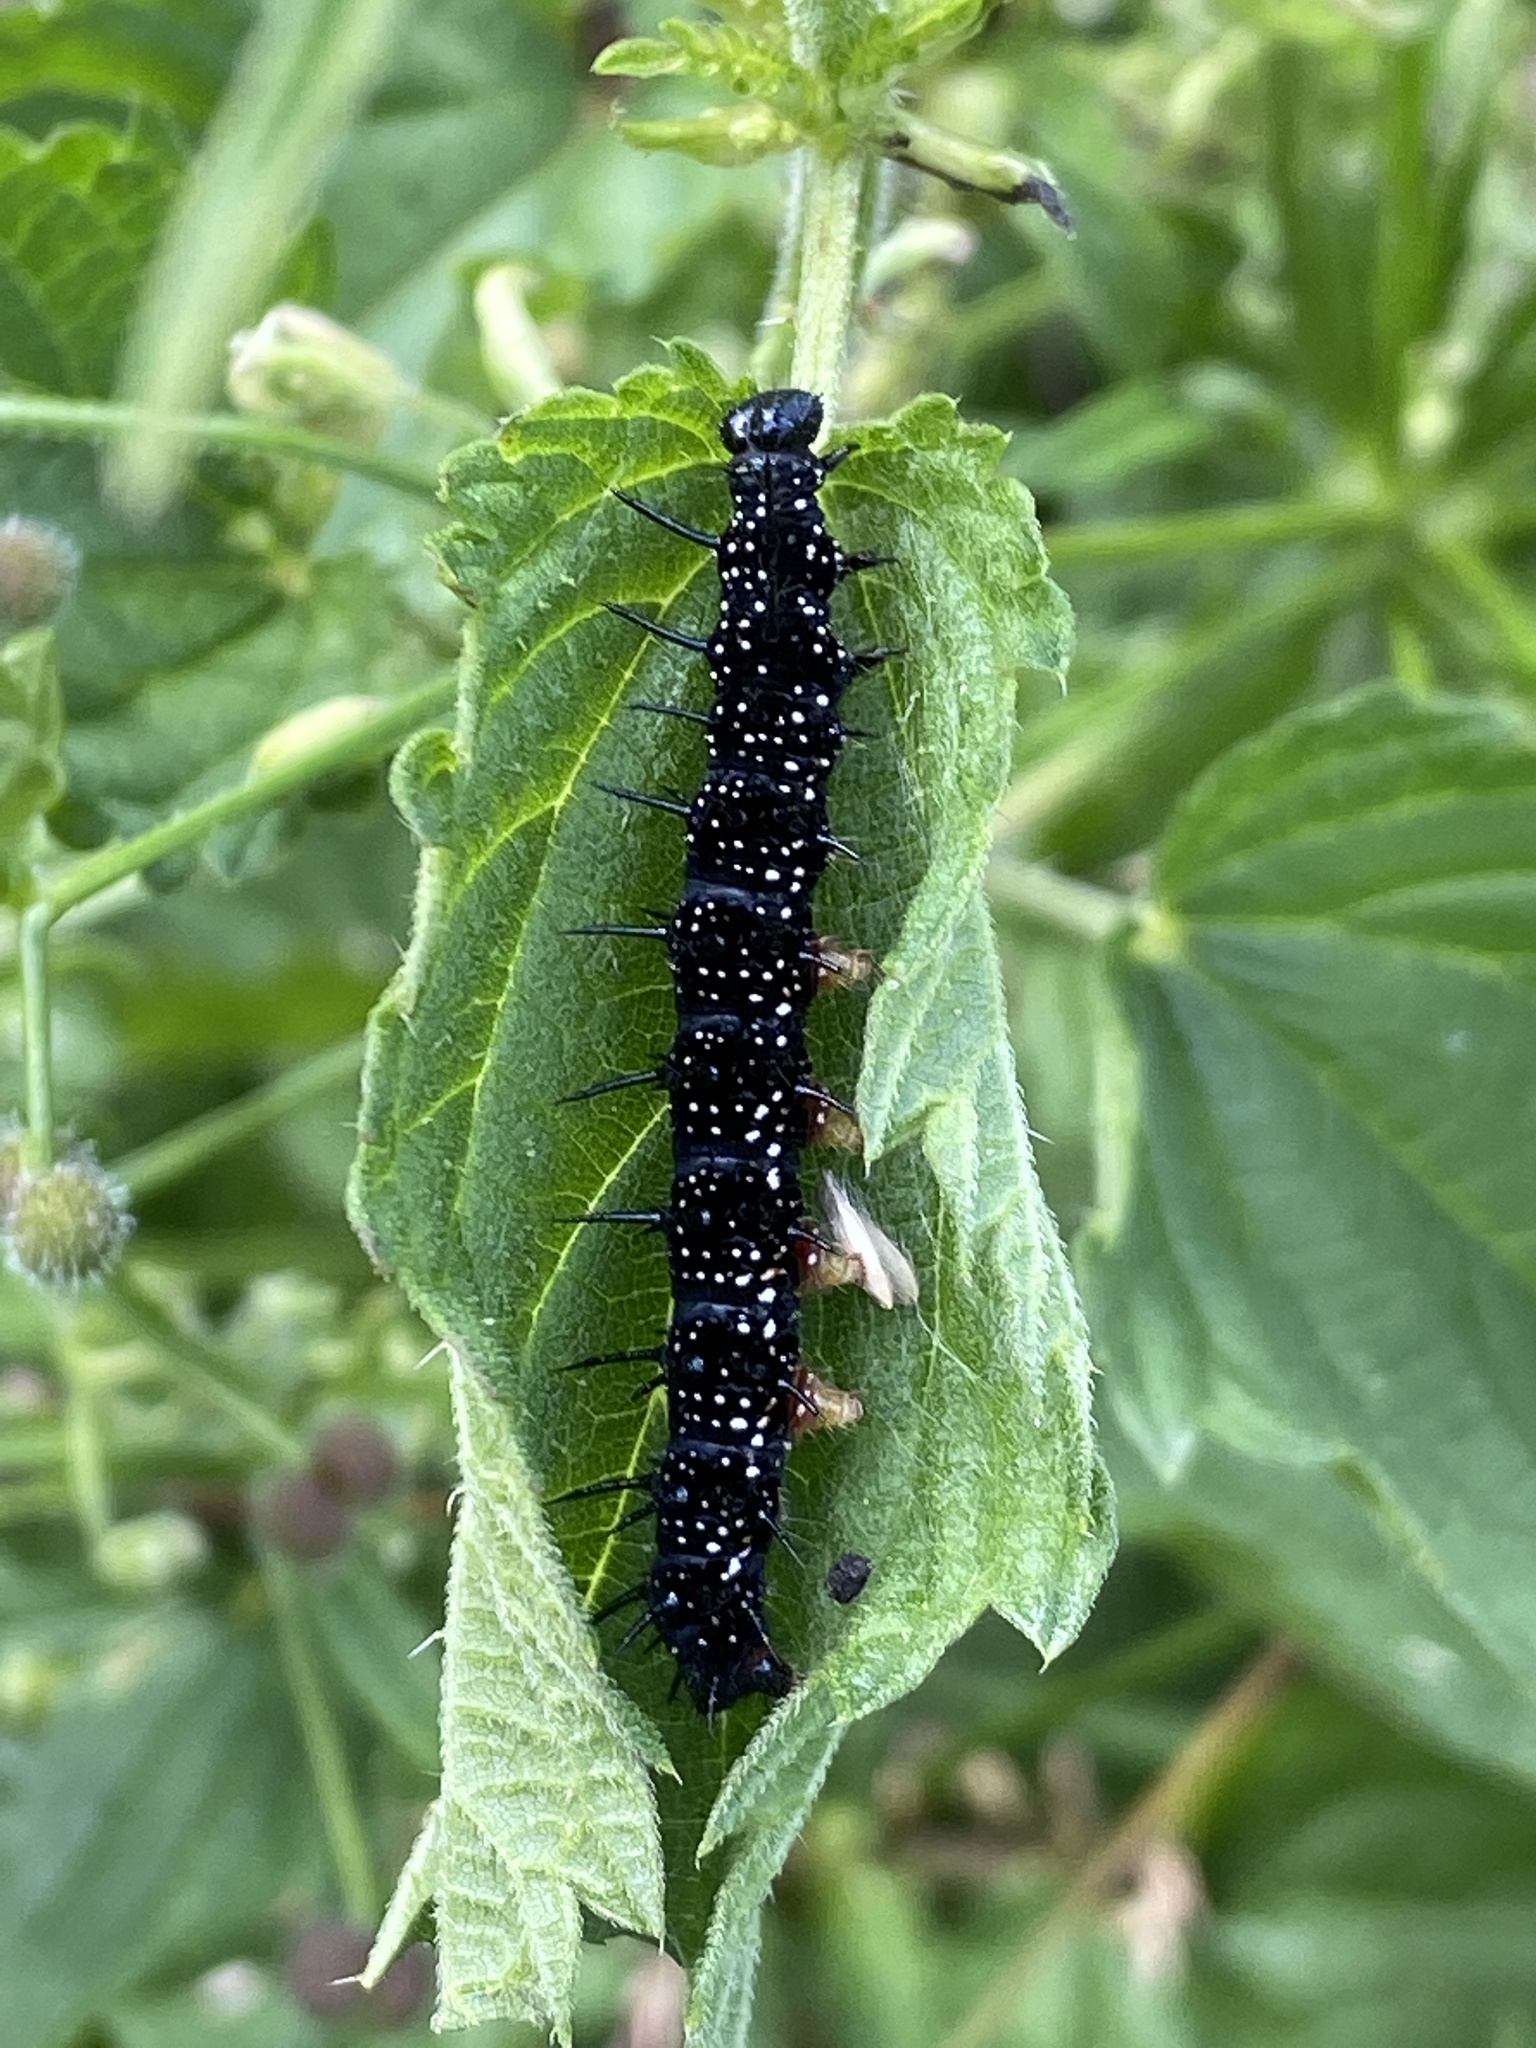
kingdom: Animalia
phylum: Arthropoda
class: Insecta
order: Lepidoptera
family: Nymphalidae
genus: Aglais
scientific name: Aglais io
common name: Peacock
